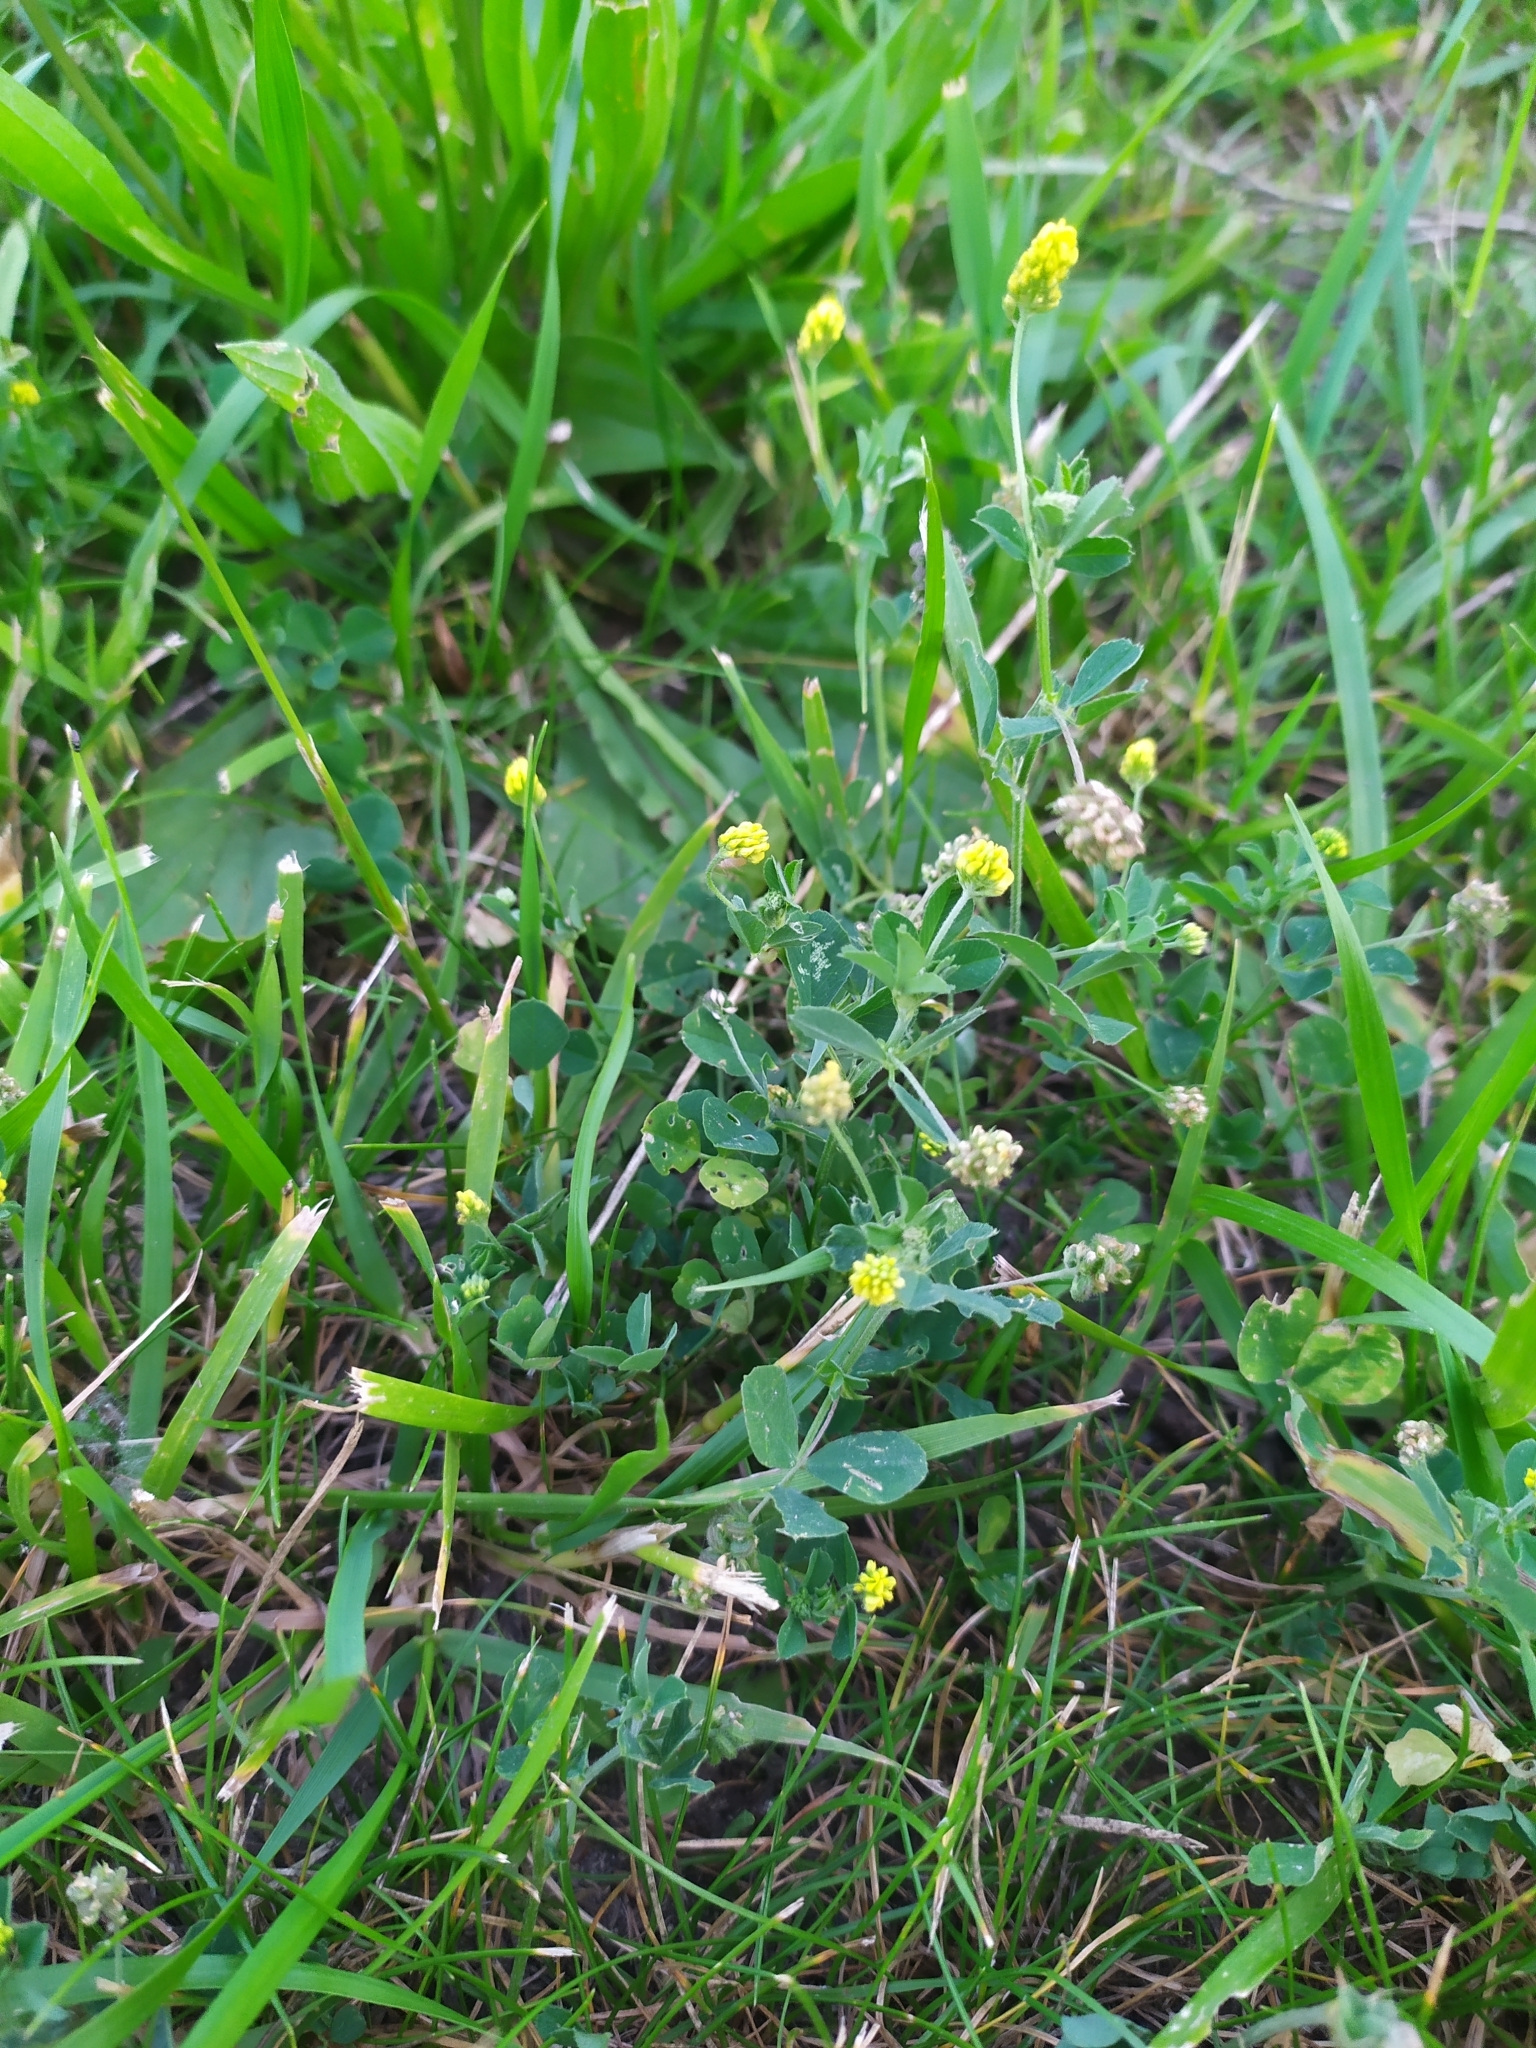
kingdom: Plantae
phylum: Tracheophyta
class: Magnoliopsida
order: Fabales
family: Fabaceae
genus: Medicago
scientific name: Medicago lupulina
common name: Black medick
